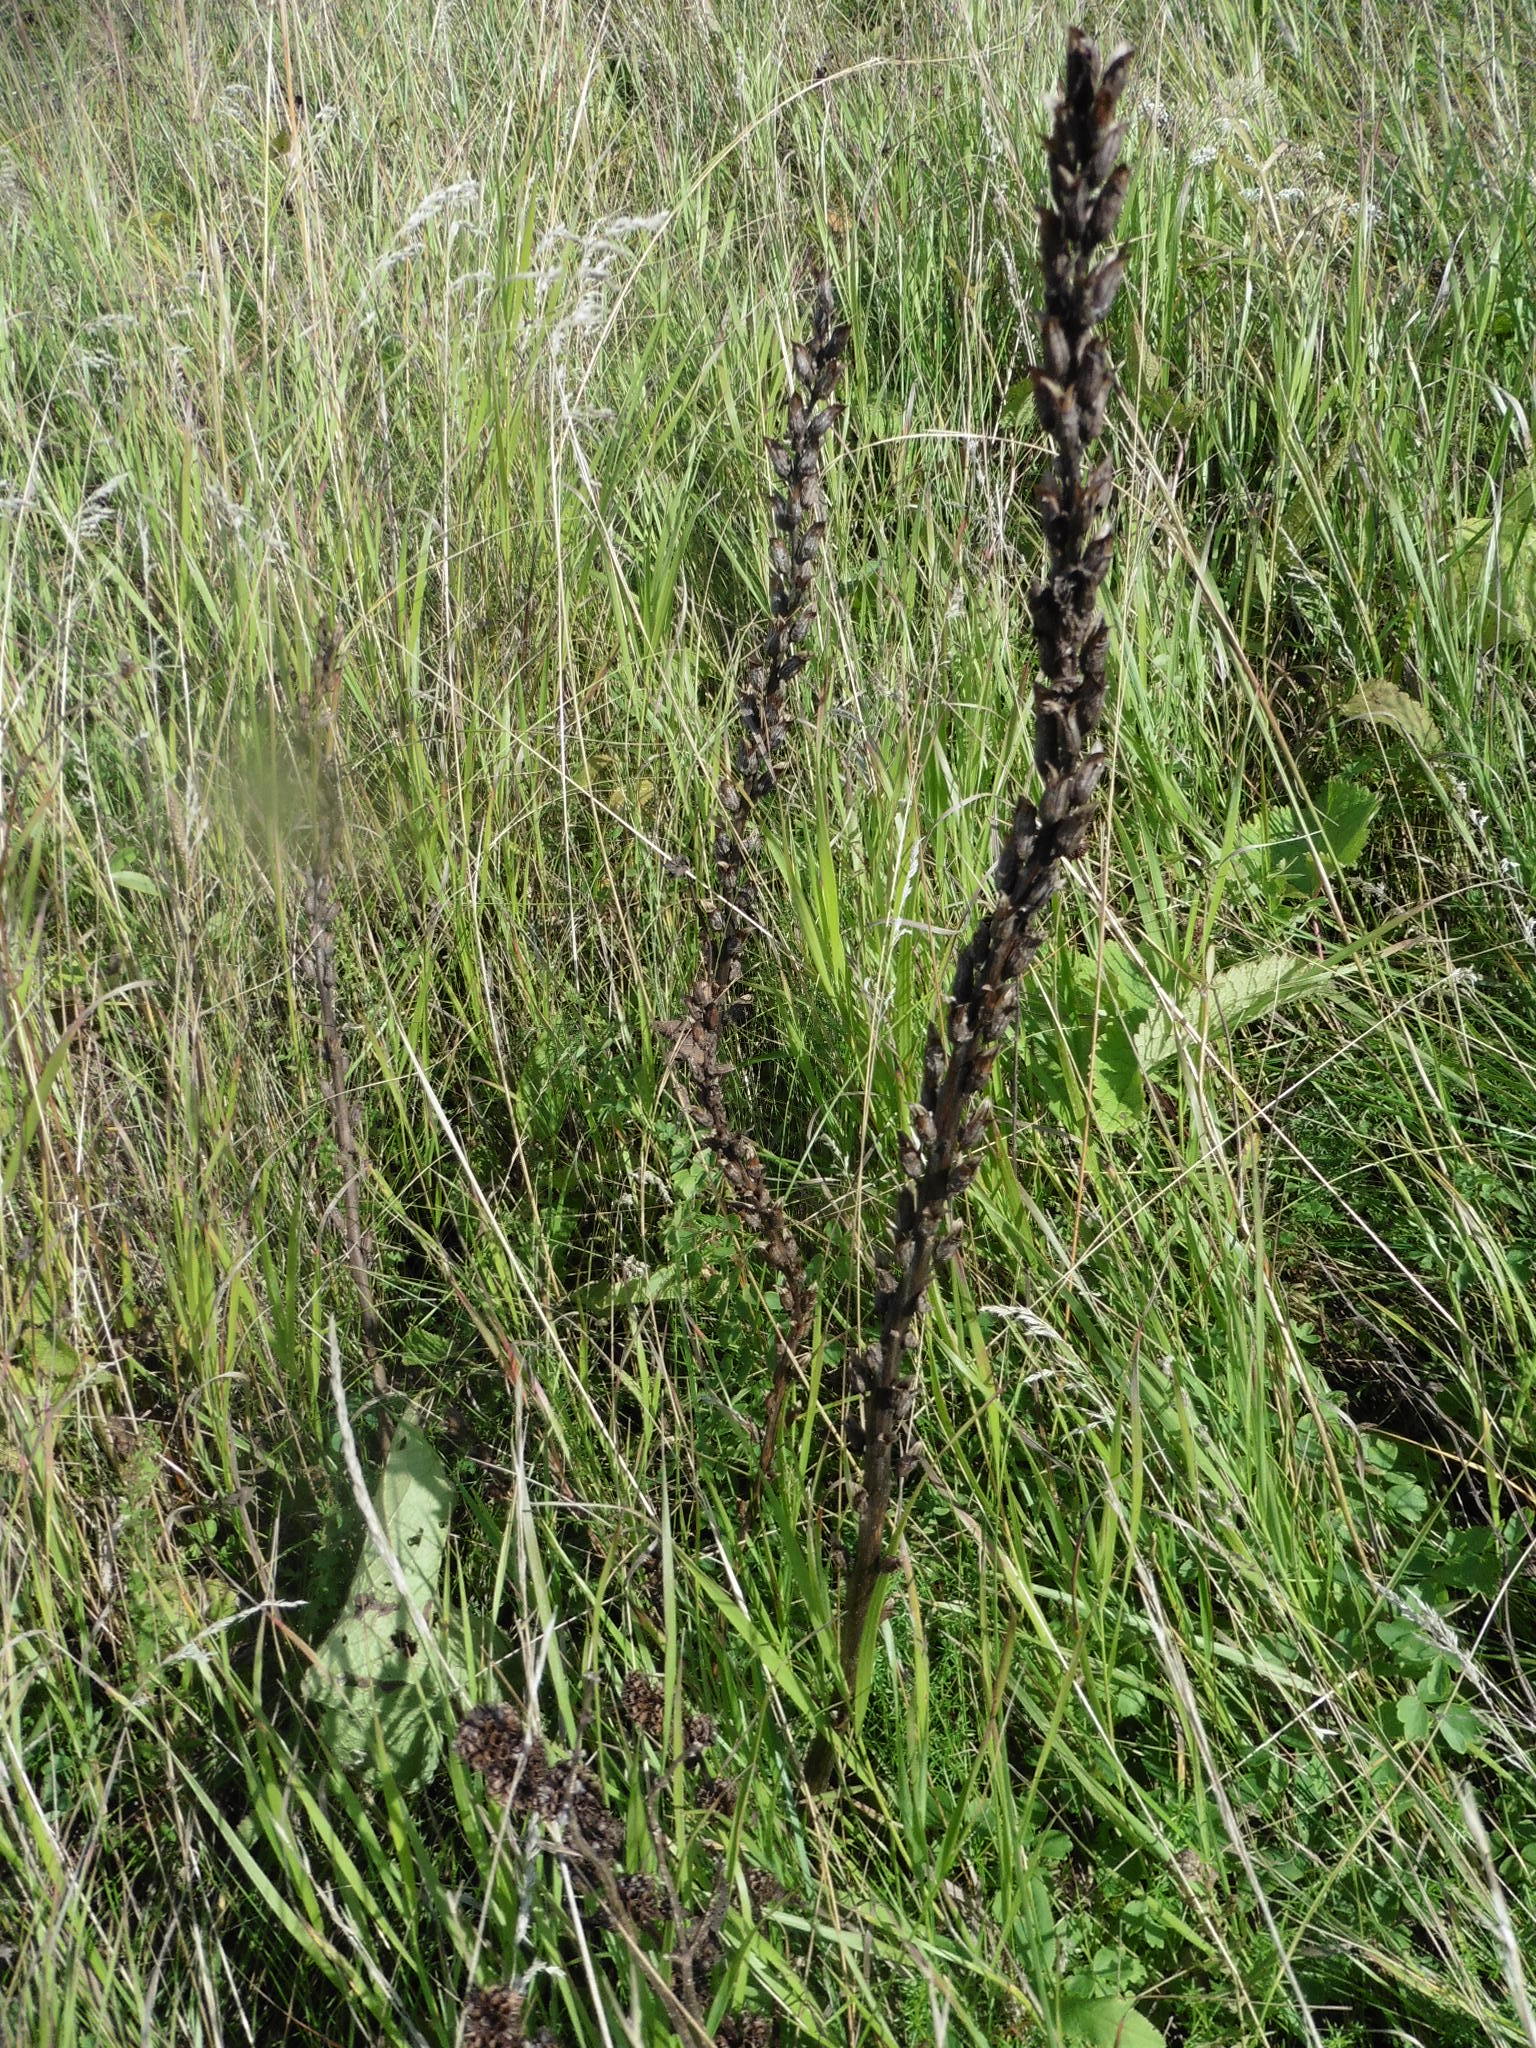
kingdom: Plantae
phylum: Tracheophyta
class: Magnoliopsida
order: Lamiales
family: Orobanchaceae
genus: Pedicularis
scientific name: Pedicularis kaufmannii
